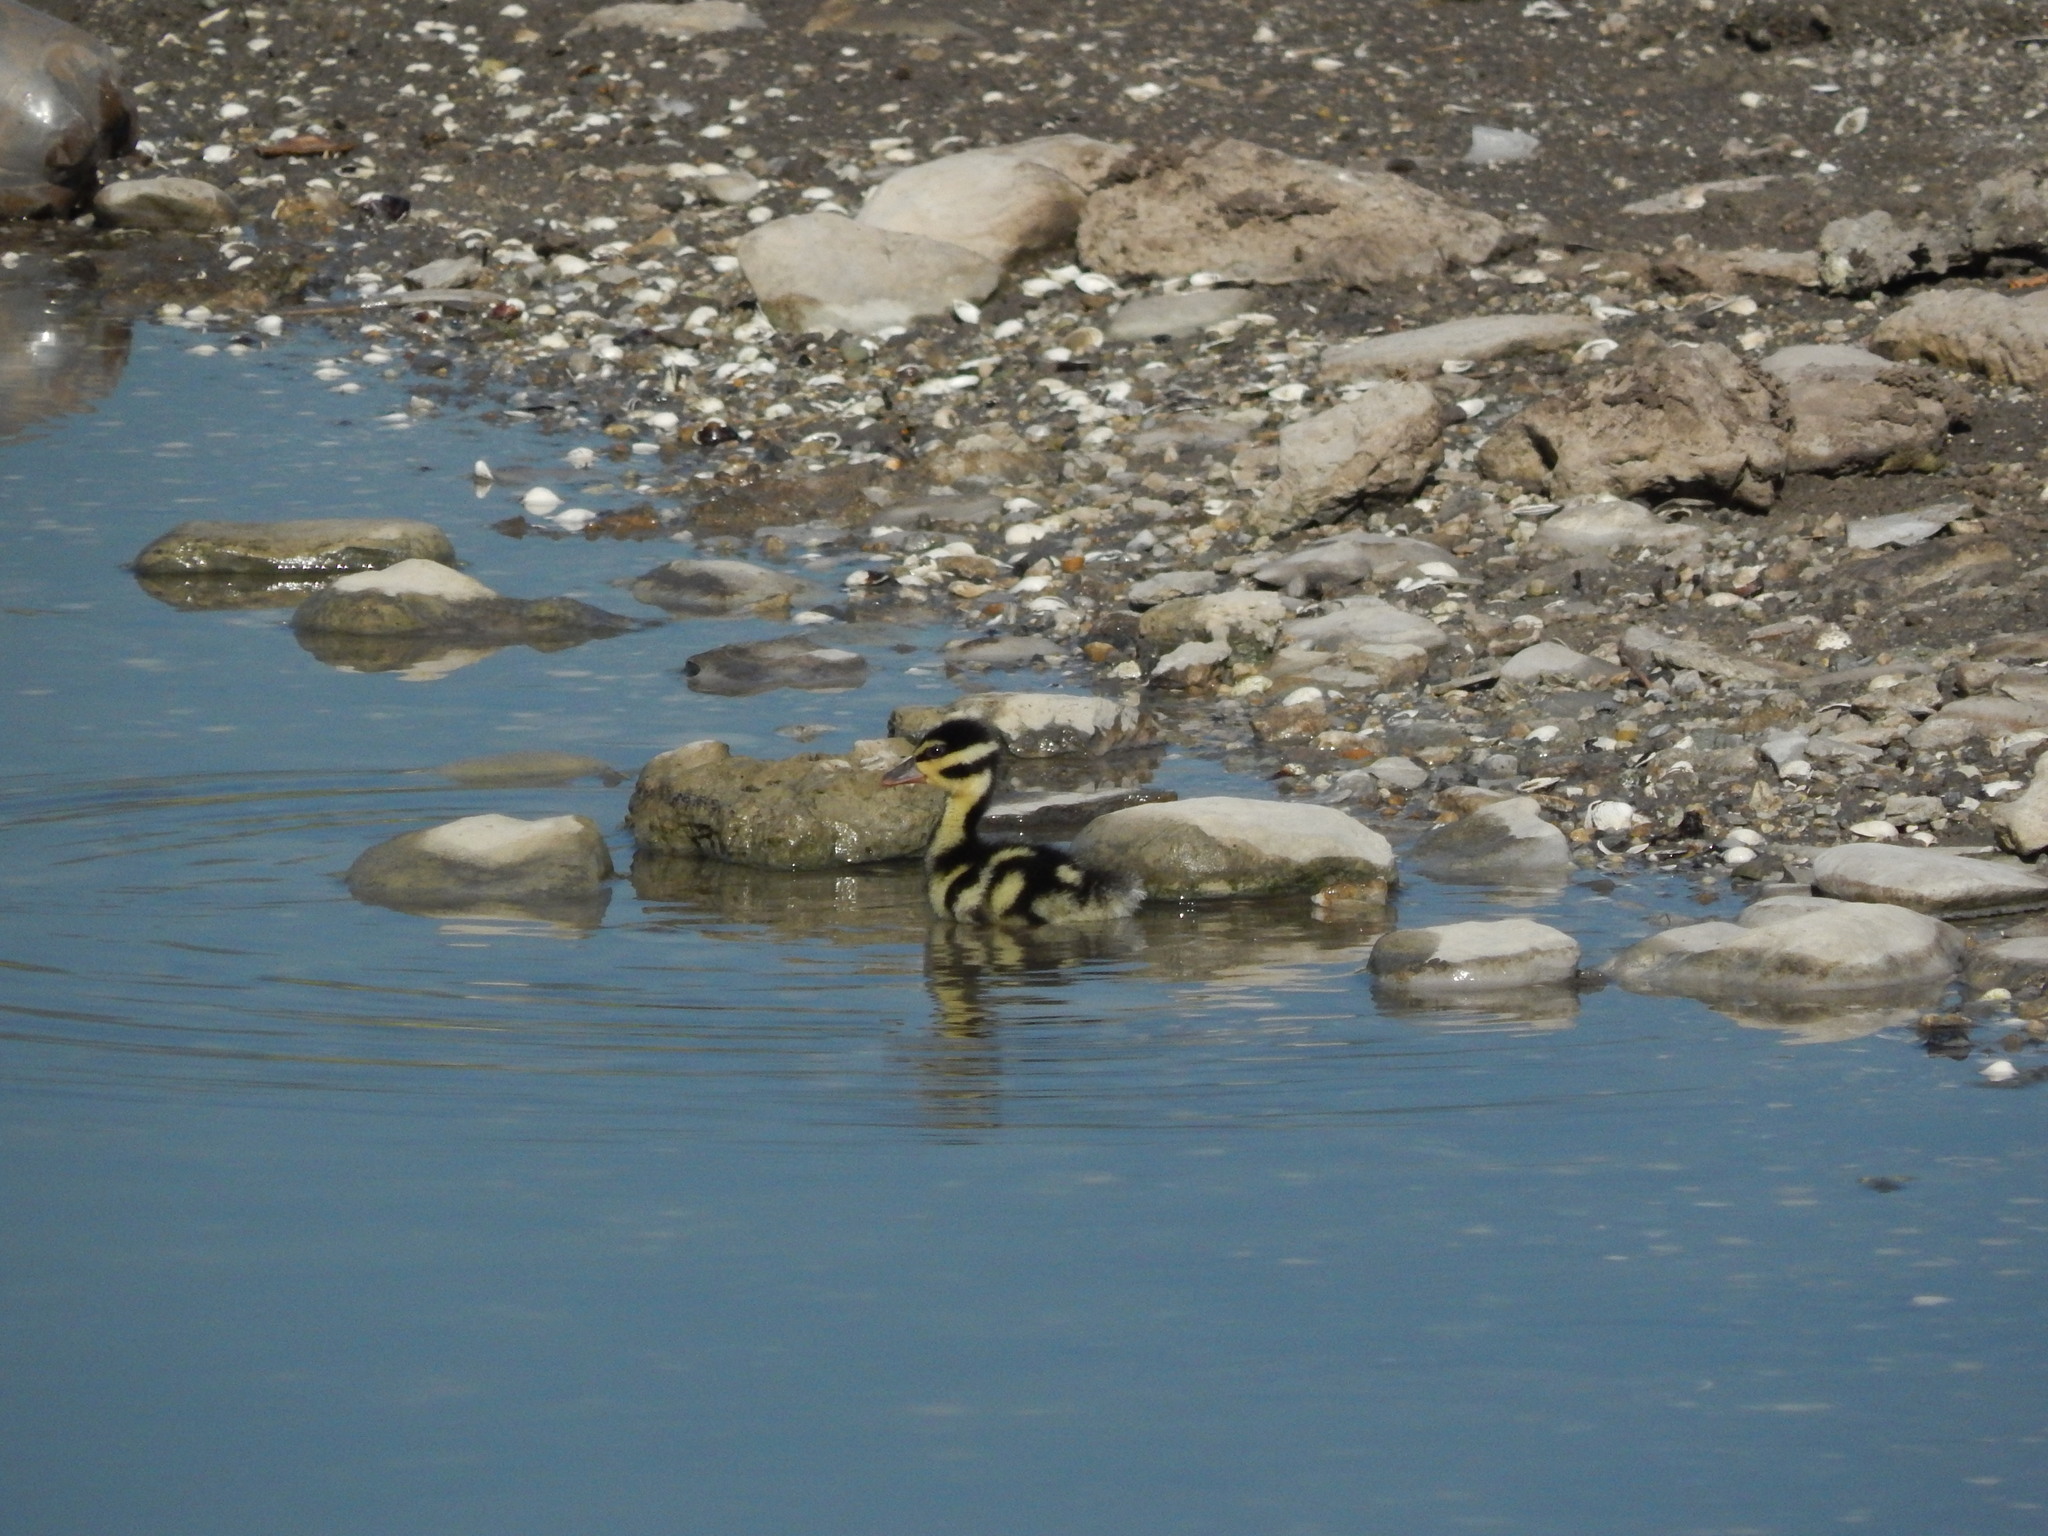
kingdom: Animalia
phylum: Chordata
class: Aves
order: Anseriformes
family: Anatidae
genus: Dendrocygna
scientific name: Dendrocygna autumnalis
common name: Black-bellied whistling duck
